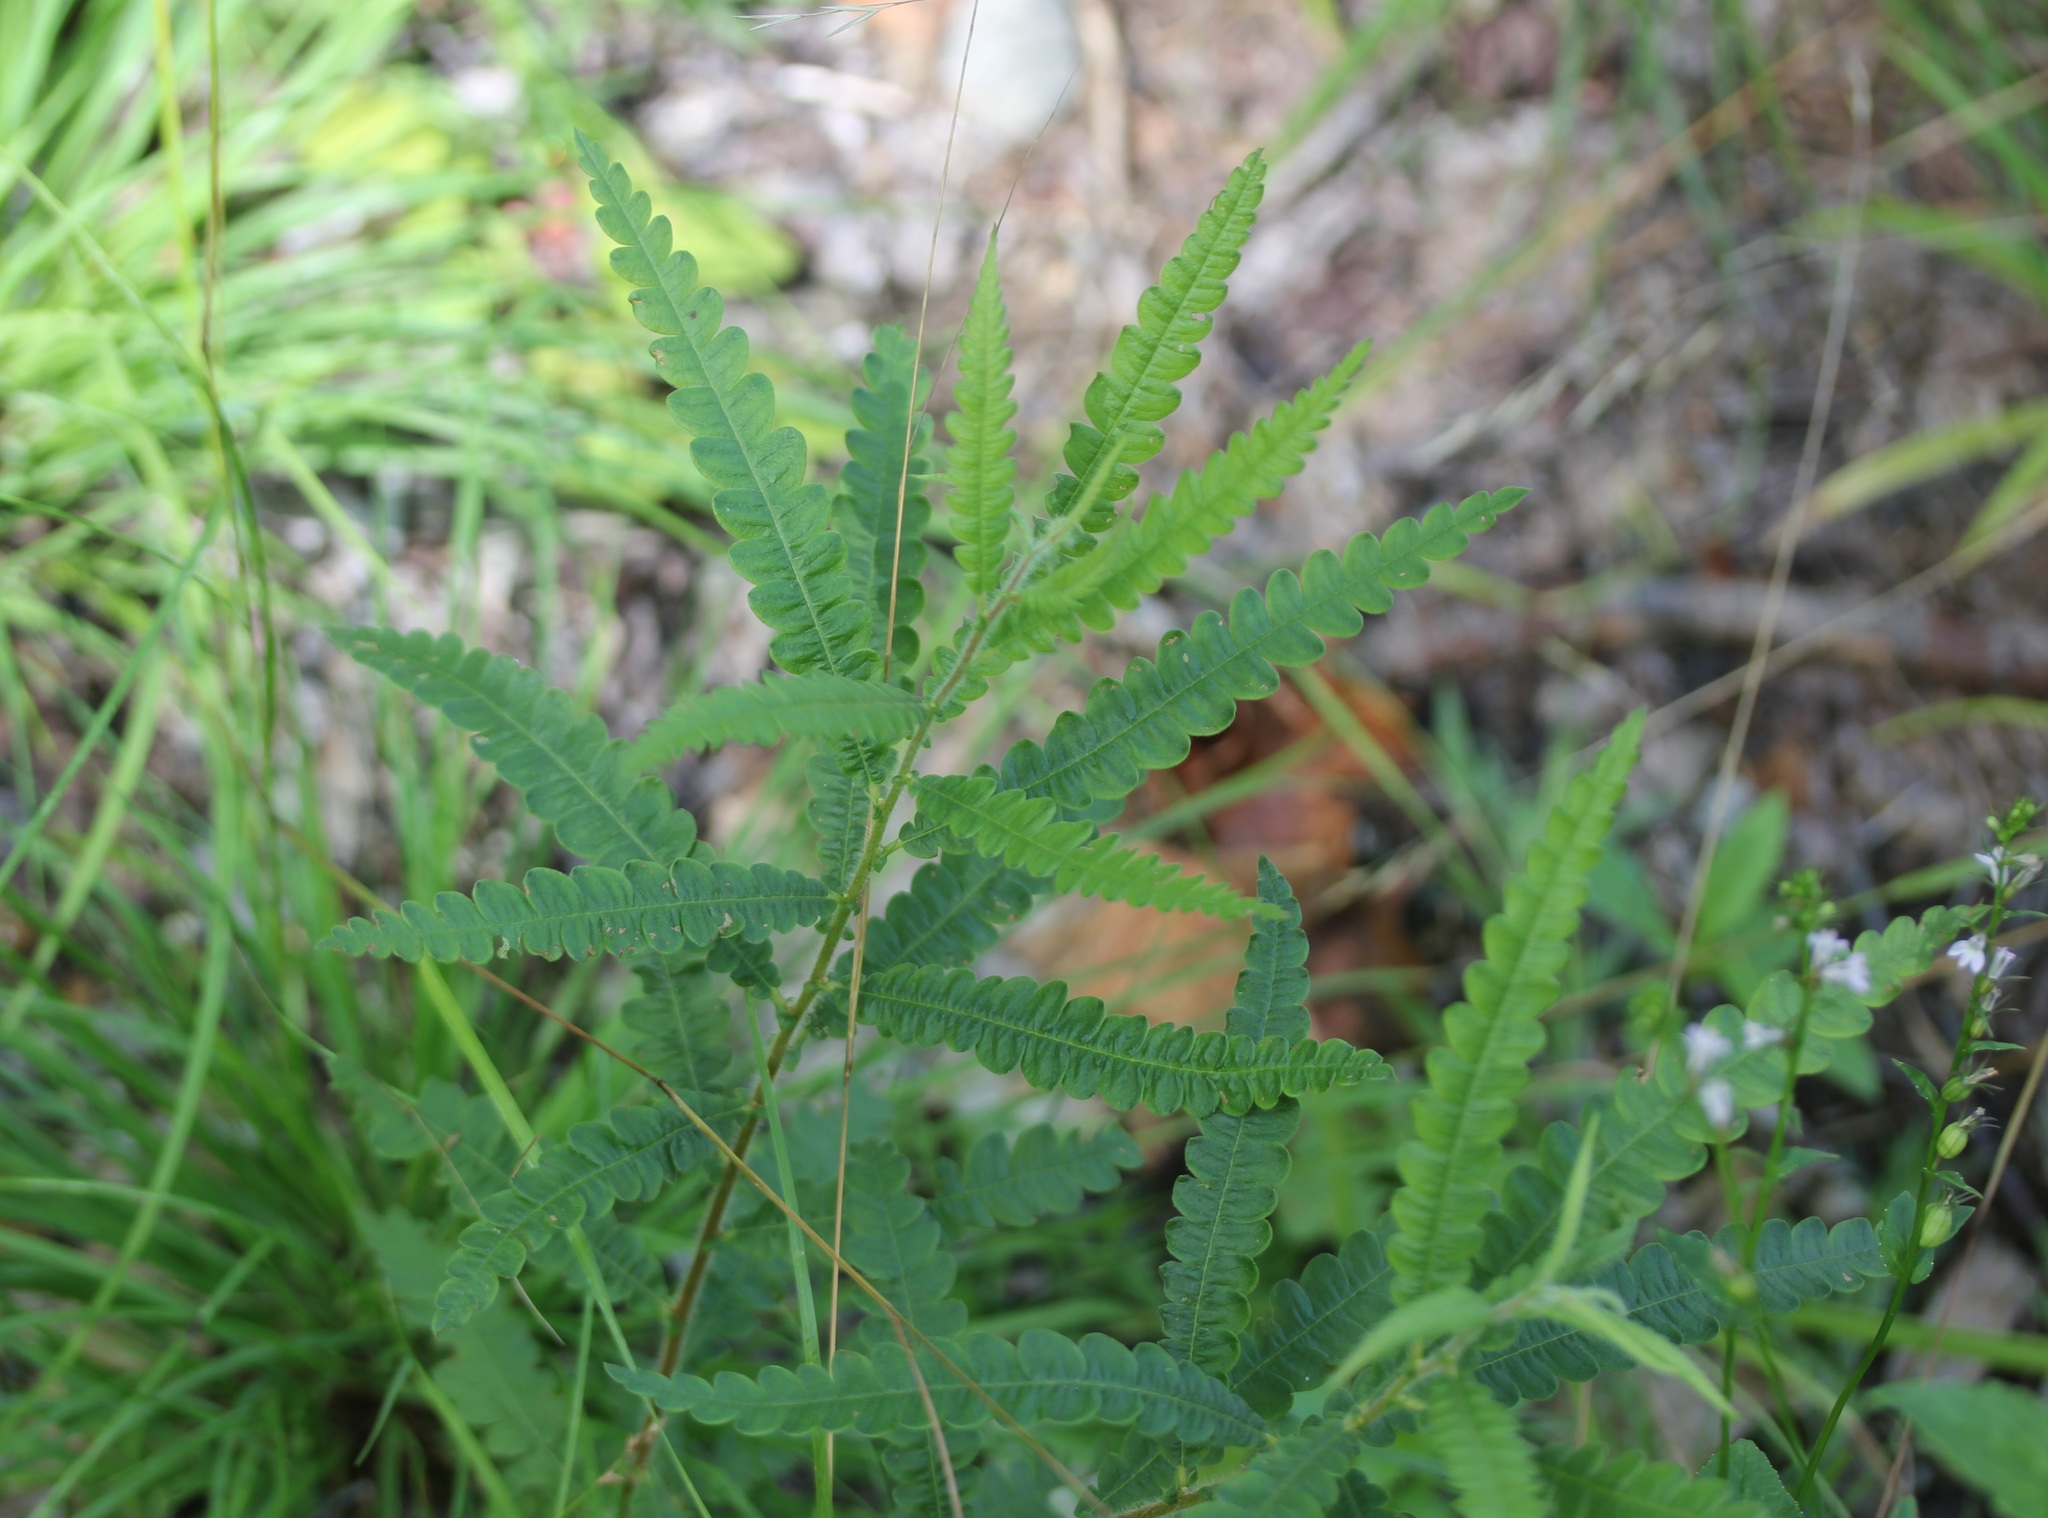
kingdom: Plantae
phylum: Tracheophyta
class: Magnoliopsida
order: Fagales
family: Myricaceae
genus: Comptonia
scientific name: Comptonia peregrina
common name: Sweet-fern
